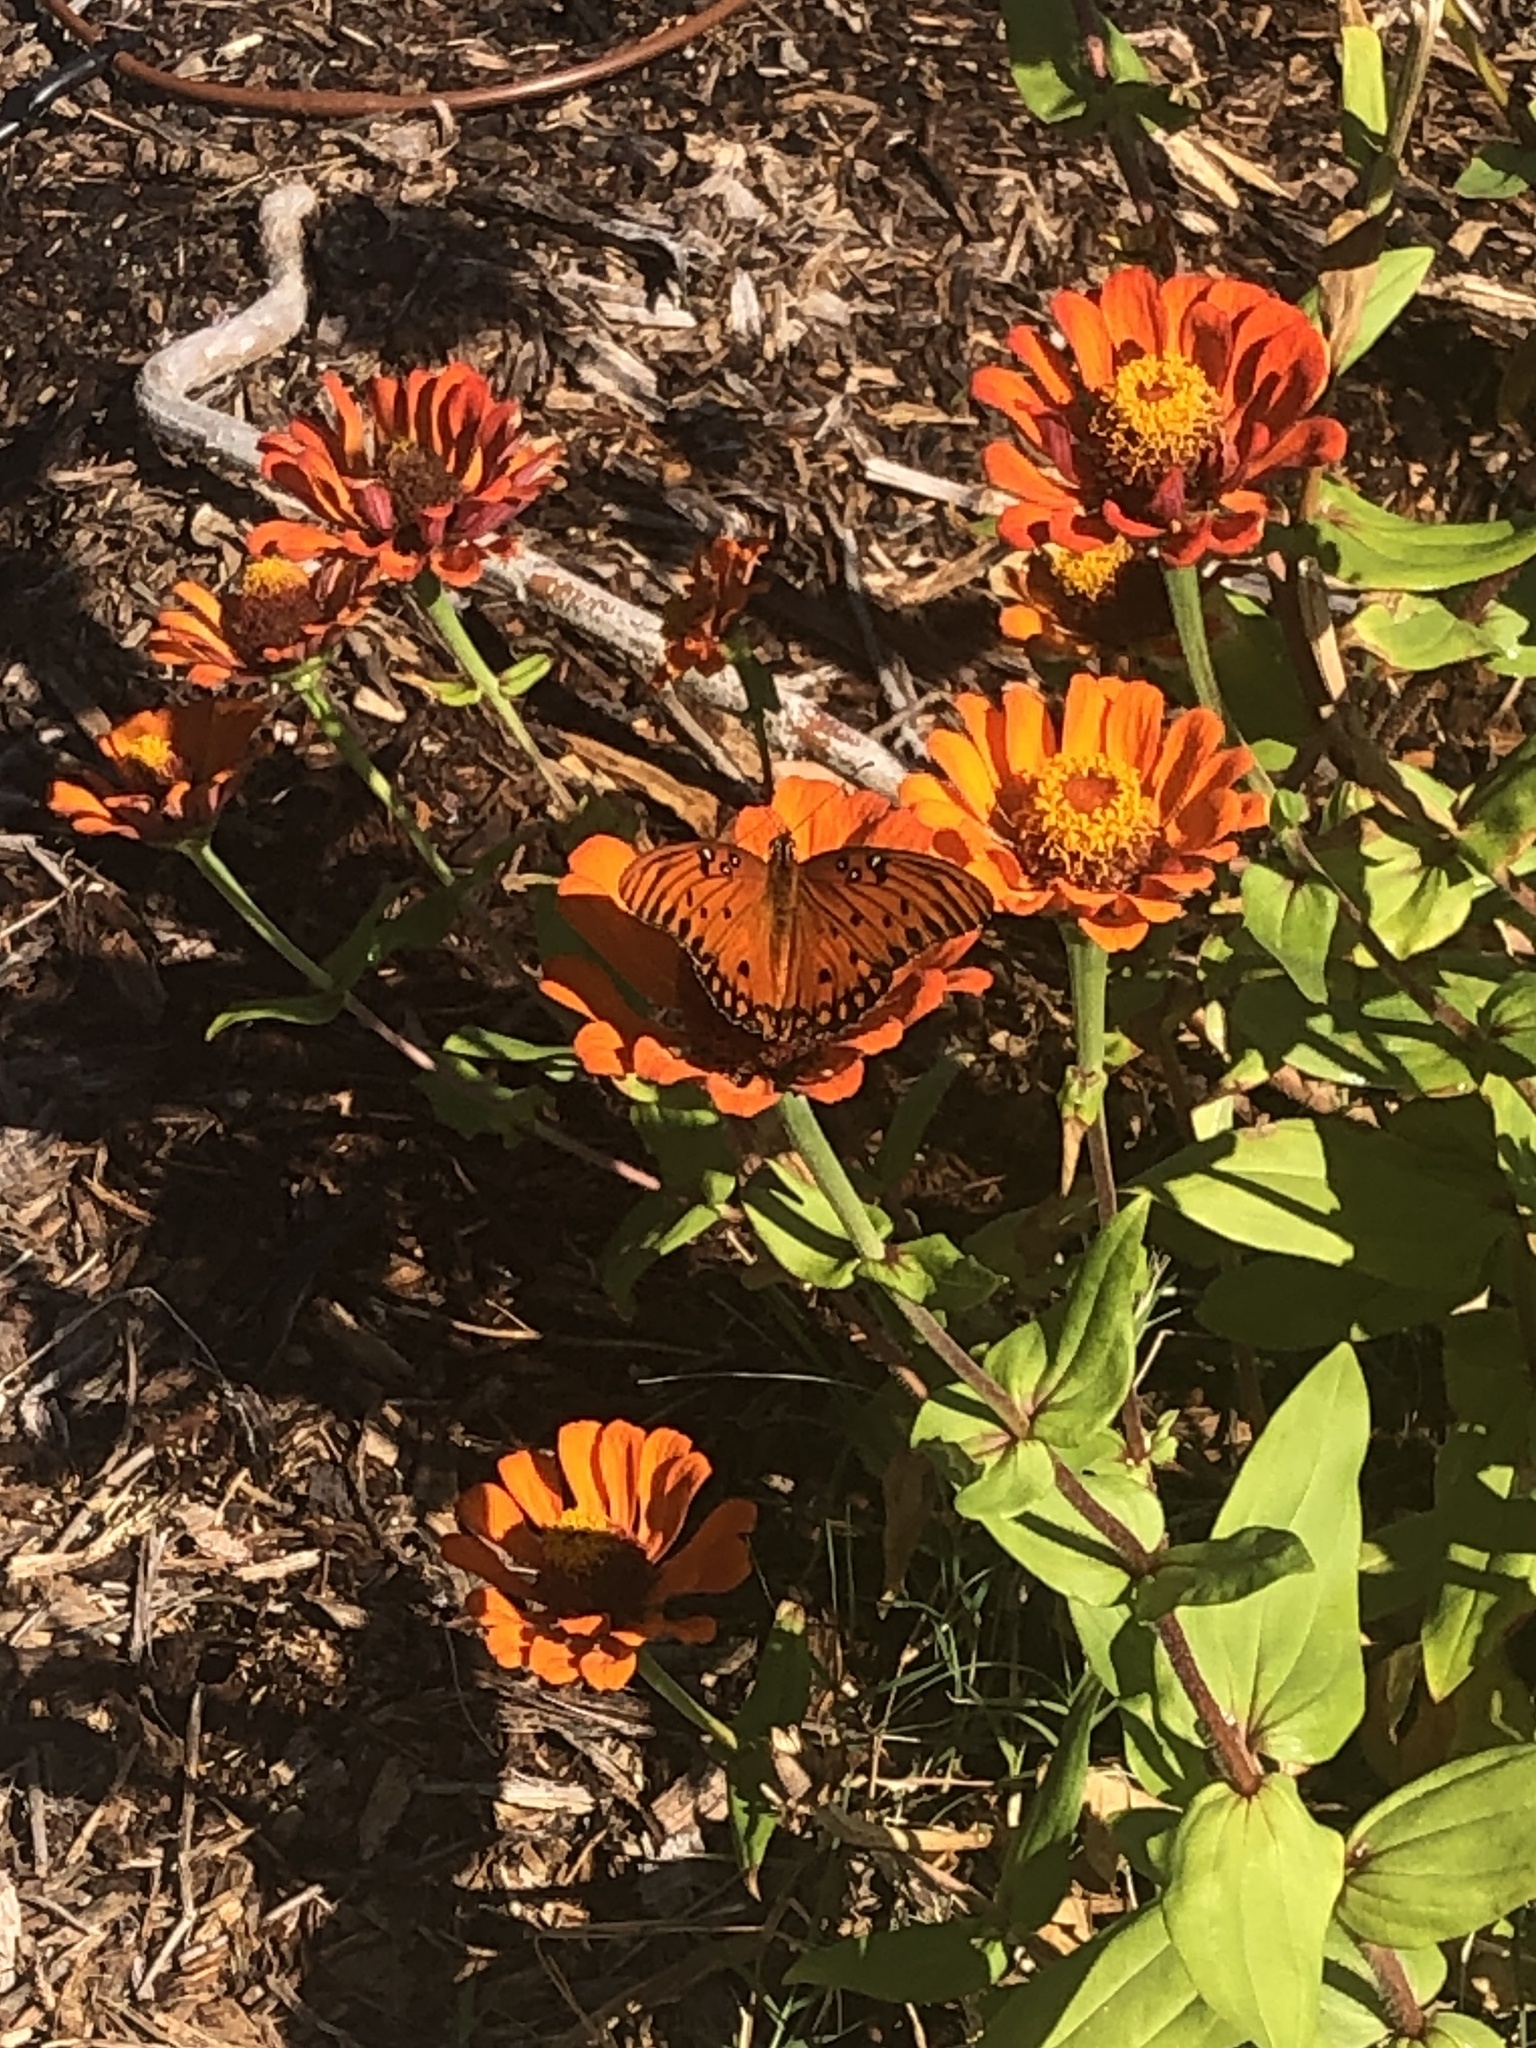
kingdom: Animalia
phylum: Arthropoda
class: Insecta
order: Lepidoptera
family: Nymphalidae
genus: Dione
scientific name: Dione vanillae
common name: Gulf fritillary
